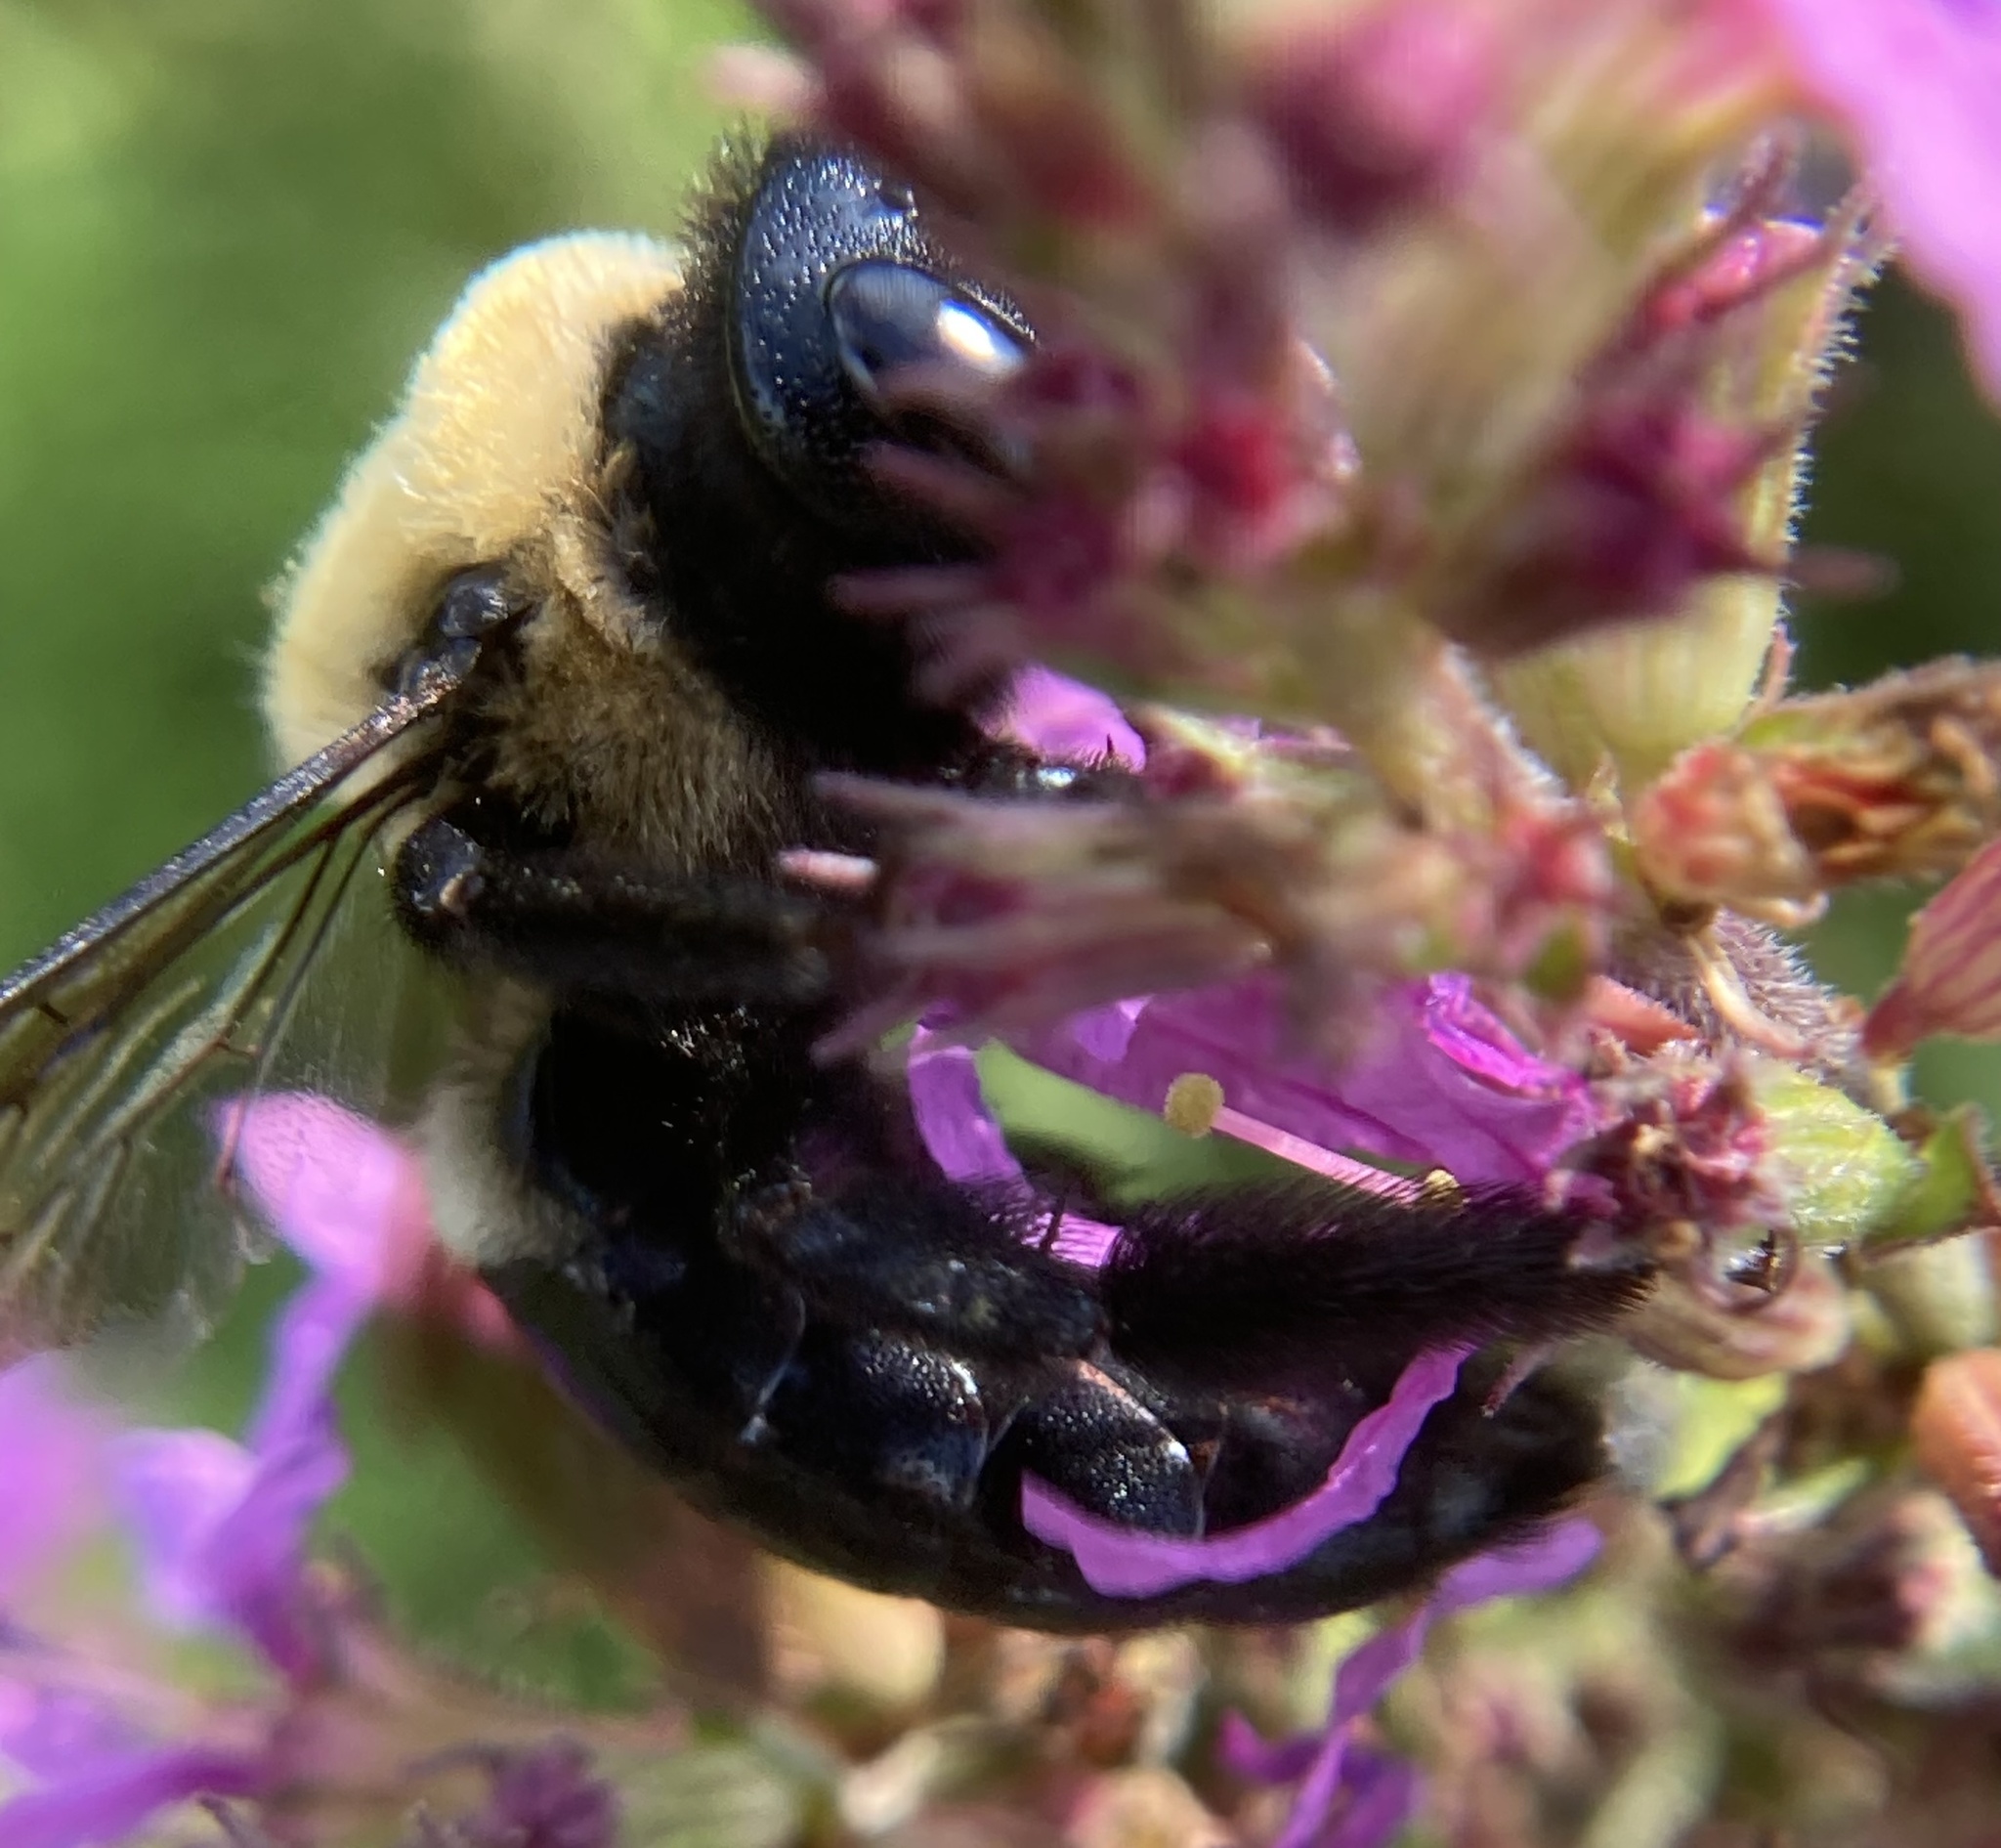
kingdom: Animalia
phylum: Arthropoda
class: Insecta
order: Hymenoptera
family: Apidae
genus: Xylocopa
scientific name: Xylocopa virginica
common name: Carpenter bee
